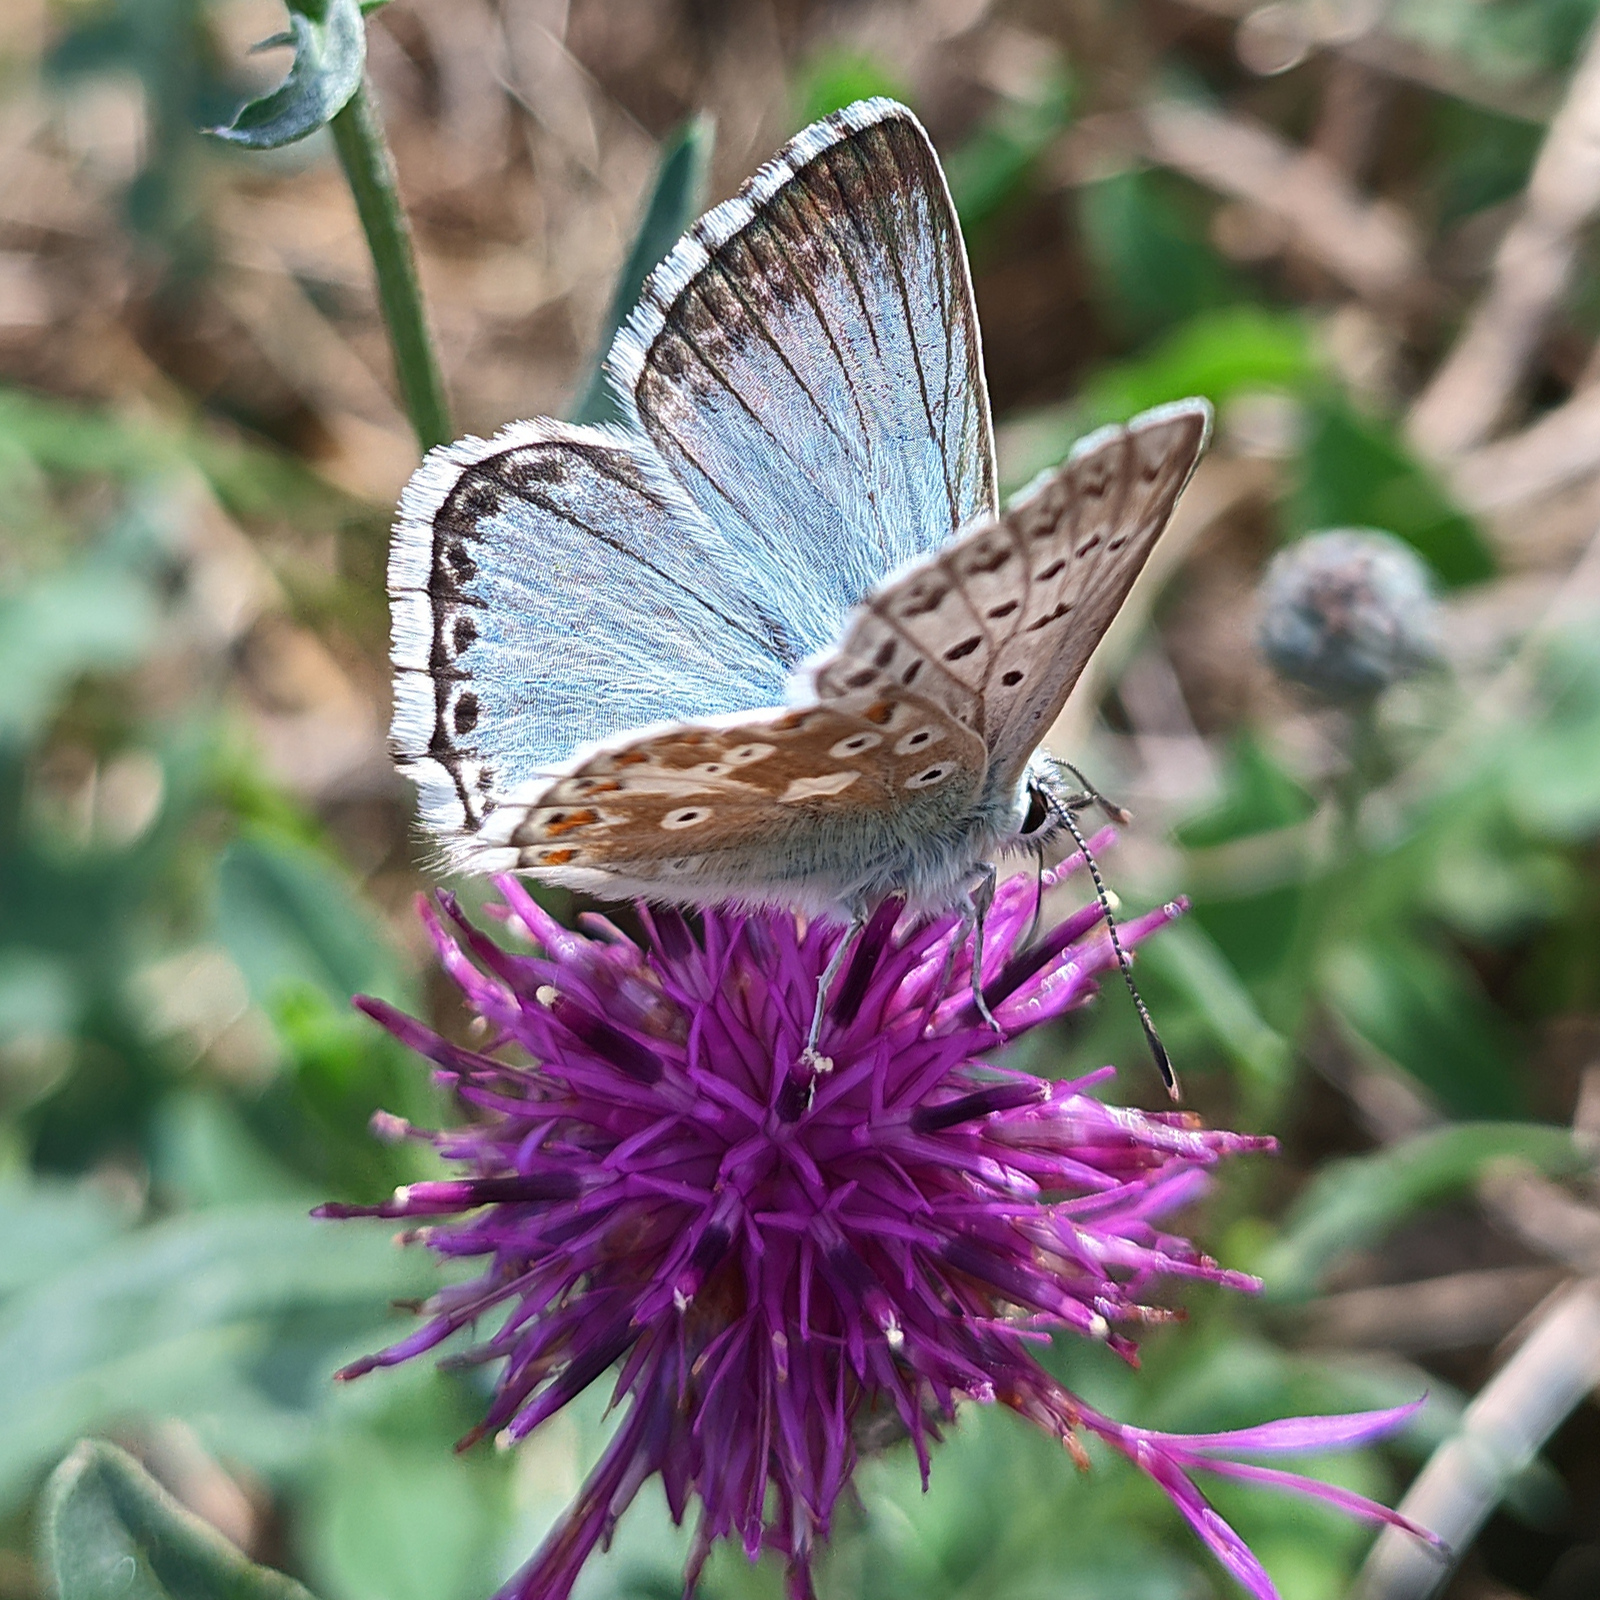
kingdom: Animalia
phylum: Arthropoda
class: Insecta
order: Lepidoptera
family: Lycaenidae
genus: Lysandra
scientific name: Lysandra coridon
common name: Chalkhill blue
